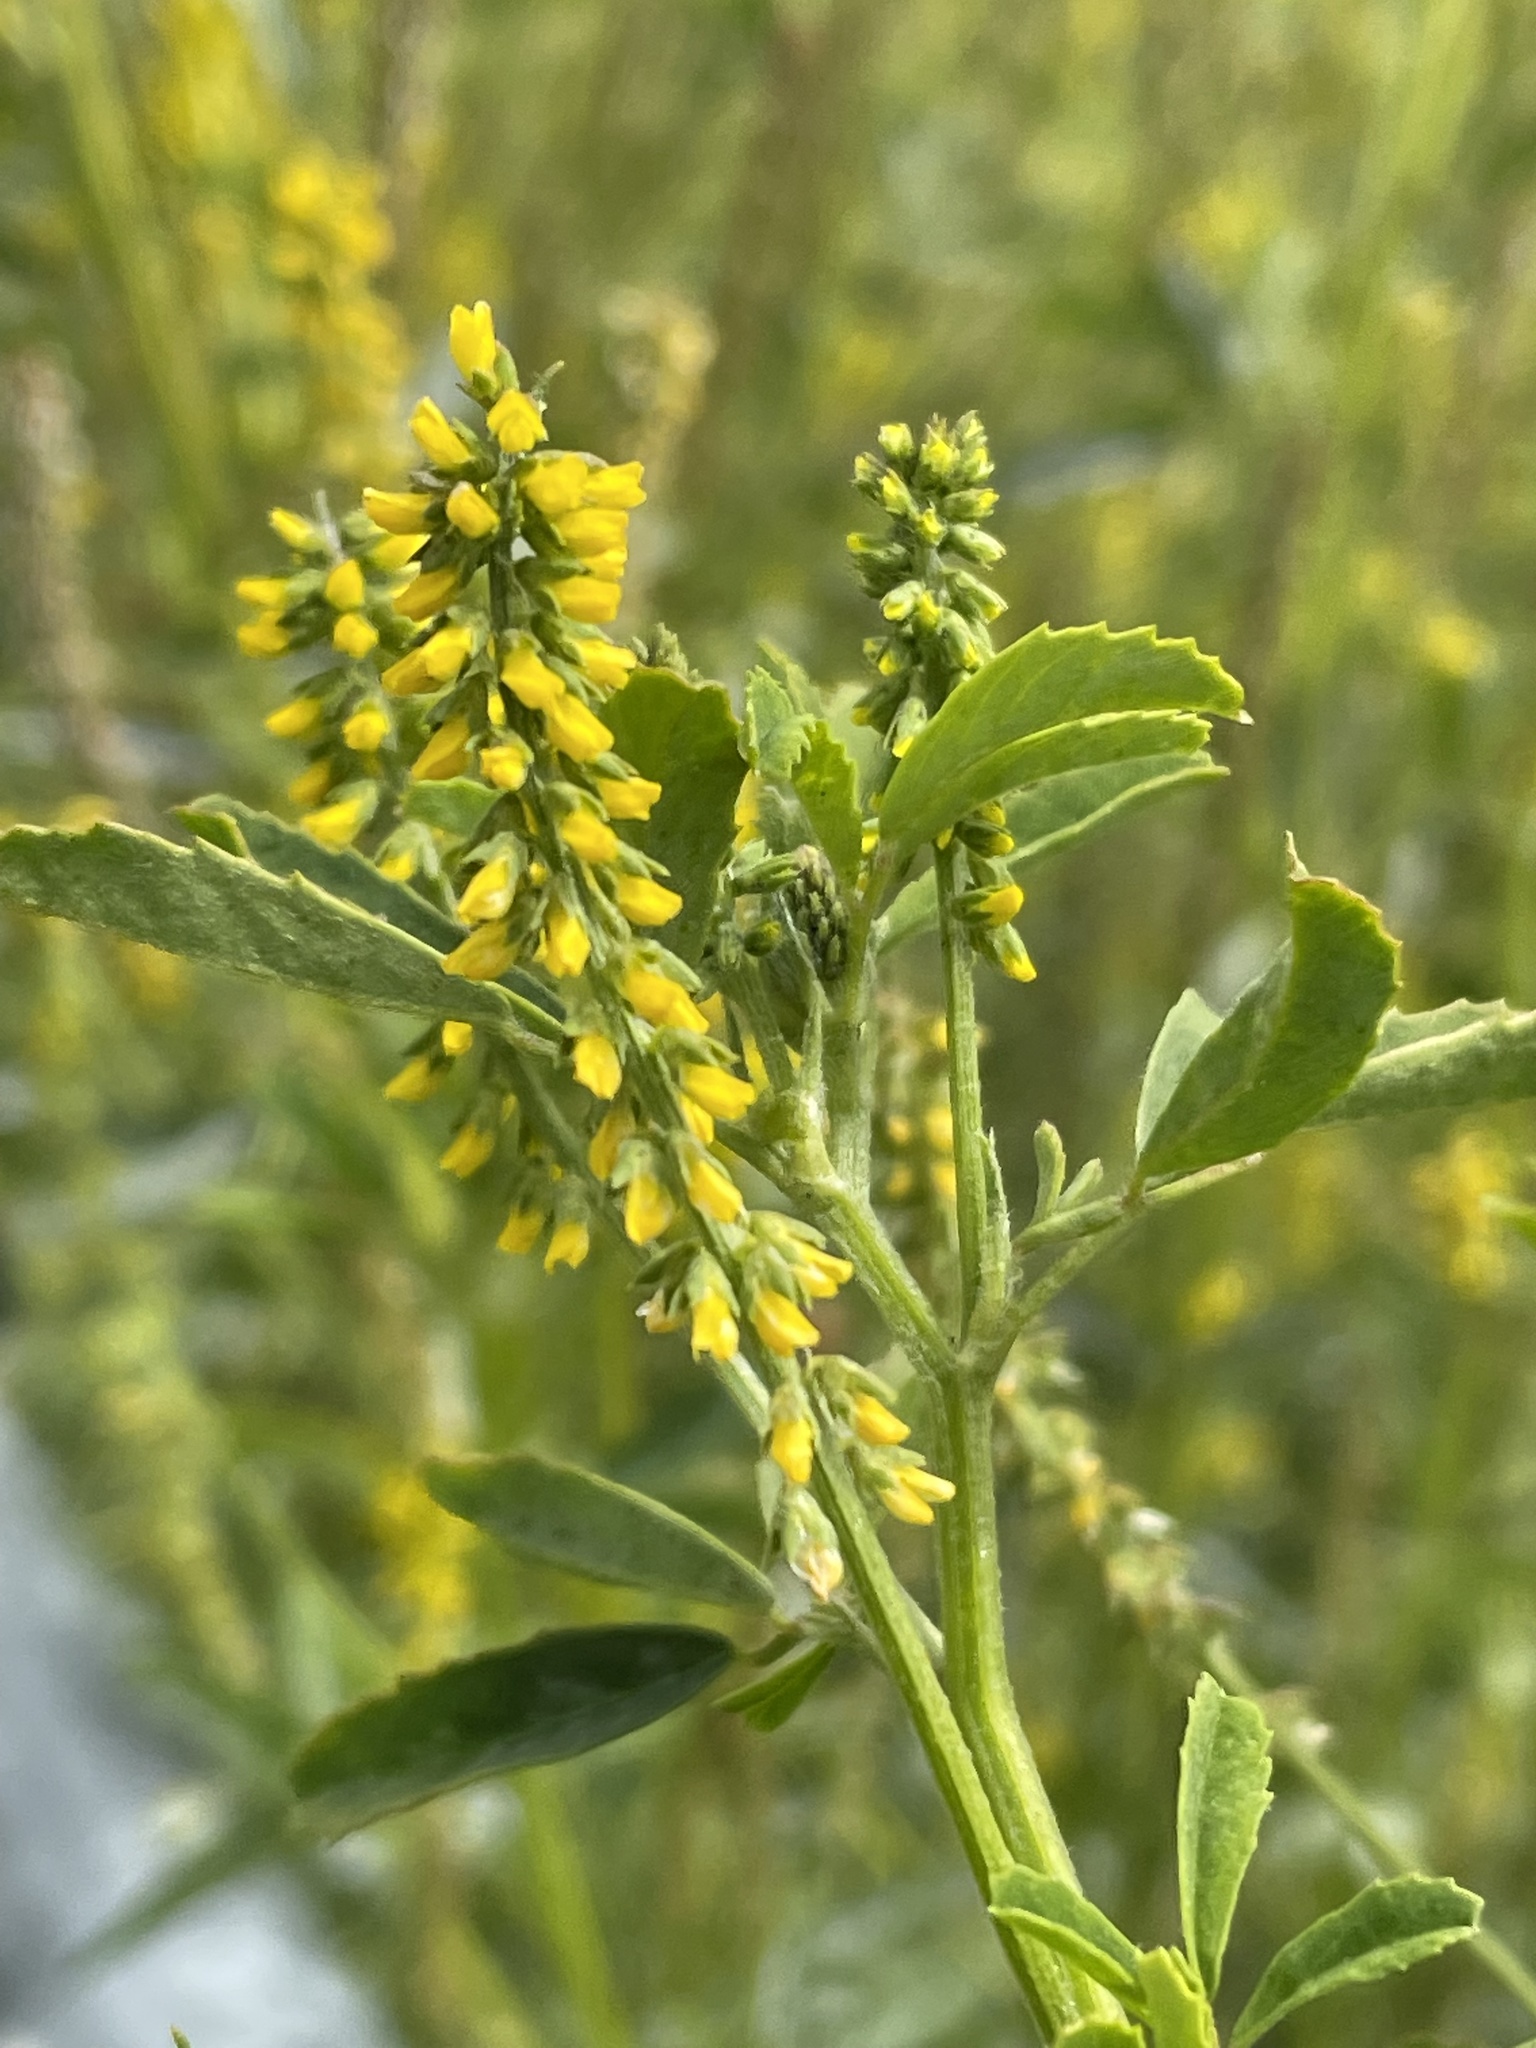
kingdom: Plantae
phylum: Tracheophyta
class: Magnoliopsida
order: Fabales
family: Fabaceae
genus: Melilotus
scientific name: Melilotus indicus
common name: Small melilot
